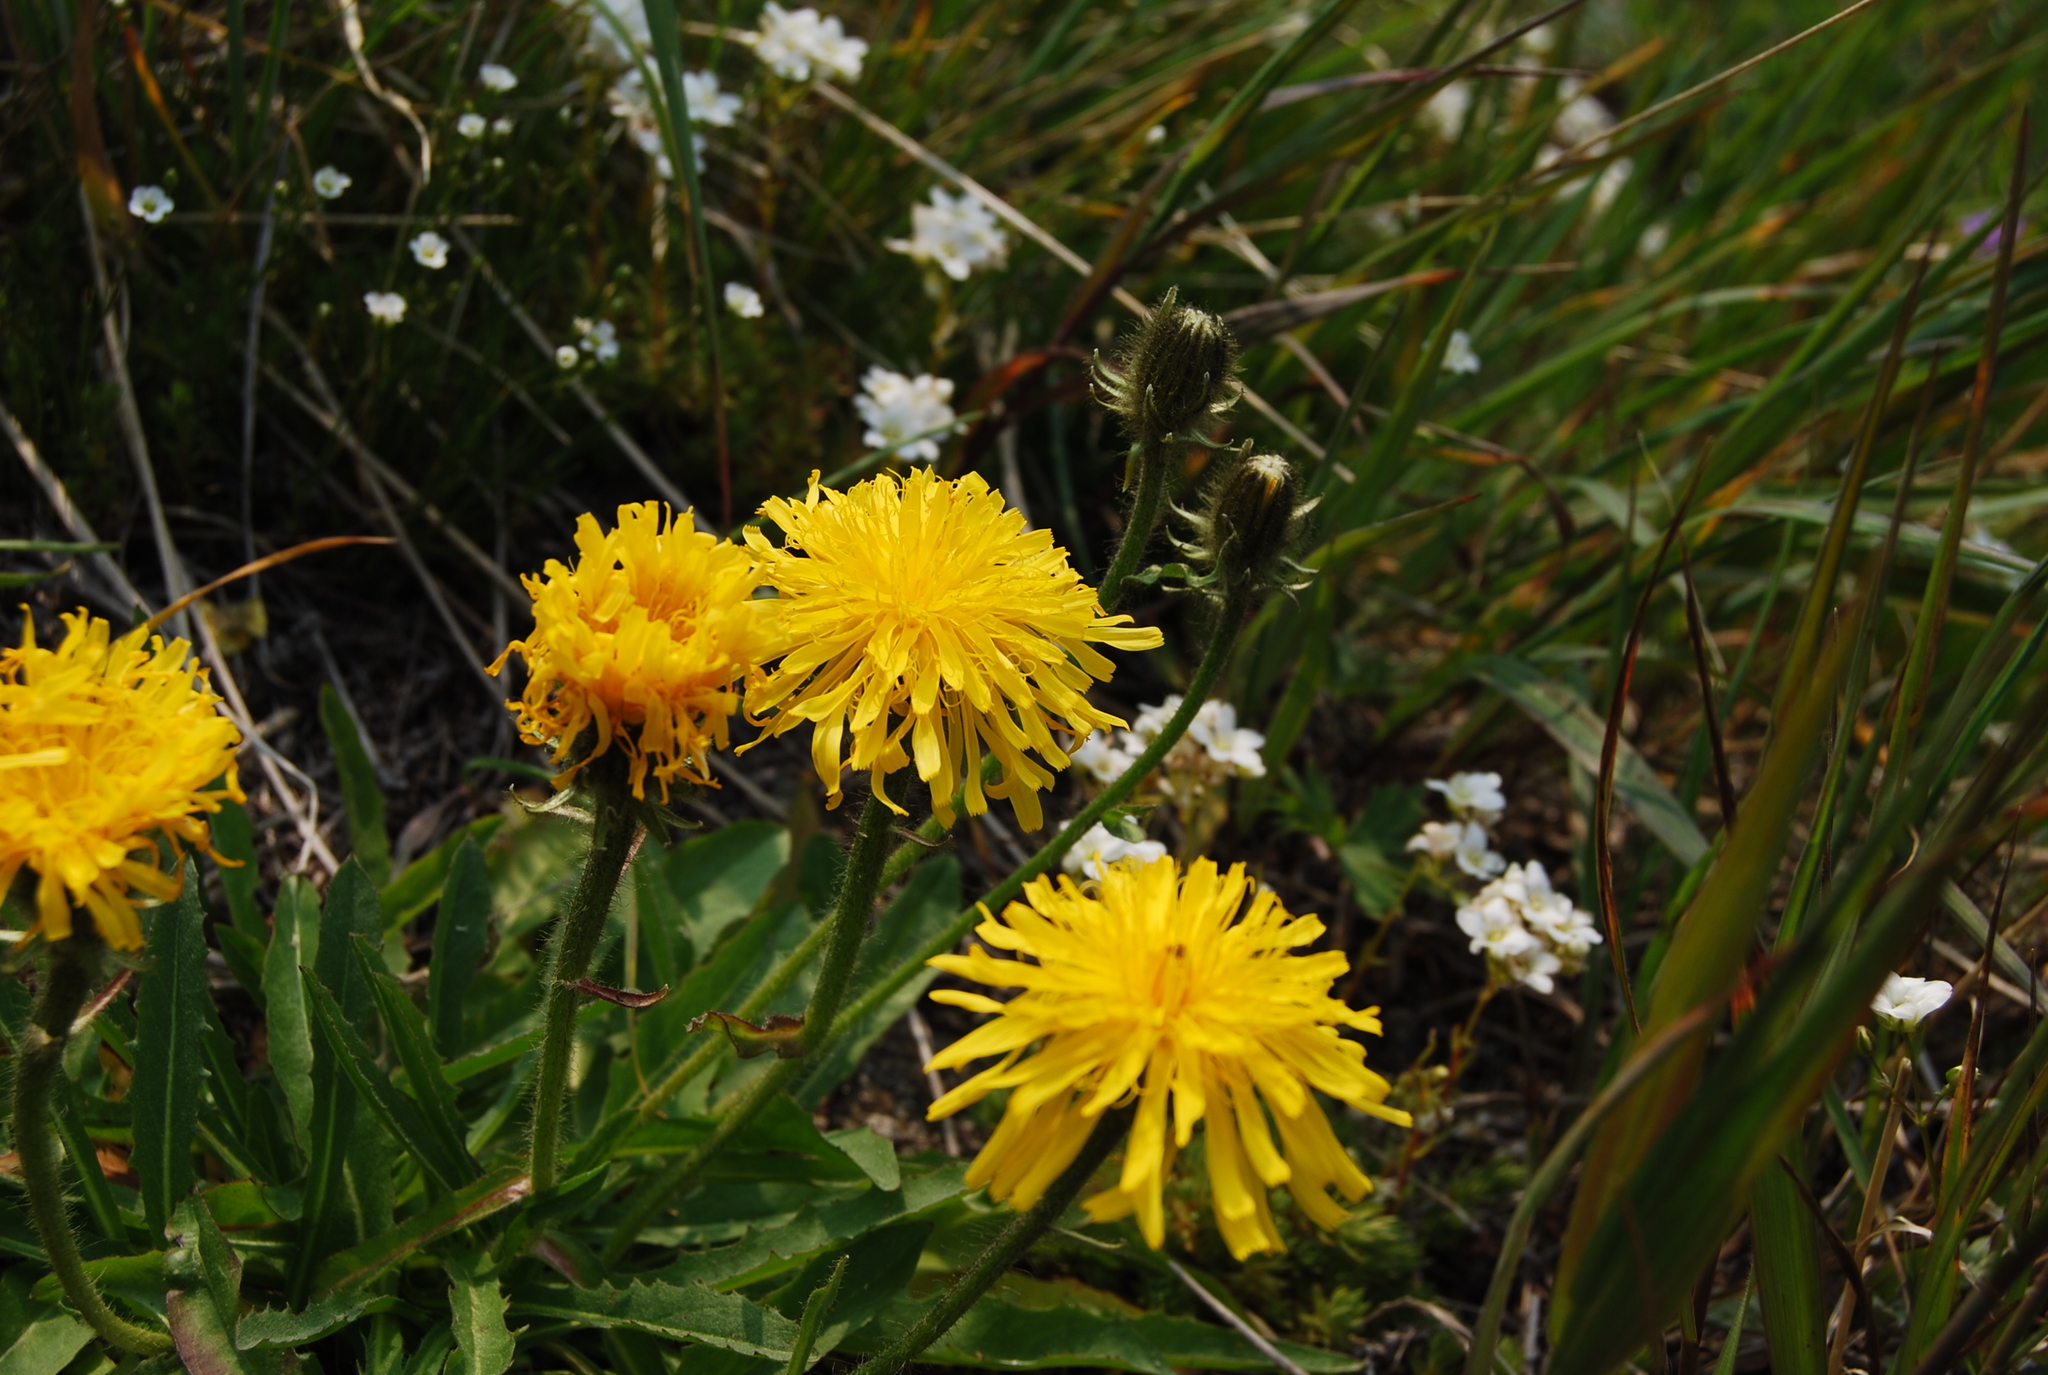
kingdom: Plantae
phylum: Tracheophyta
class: Magnoliopsida
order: Asterales
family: Asteraceae
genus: Crepis
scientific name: Crepis chrysantha
